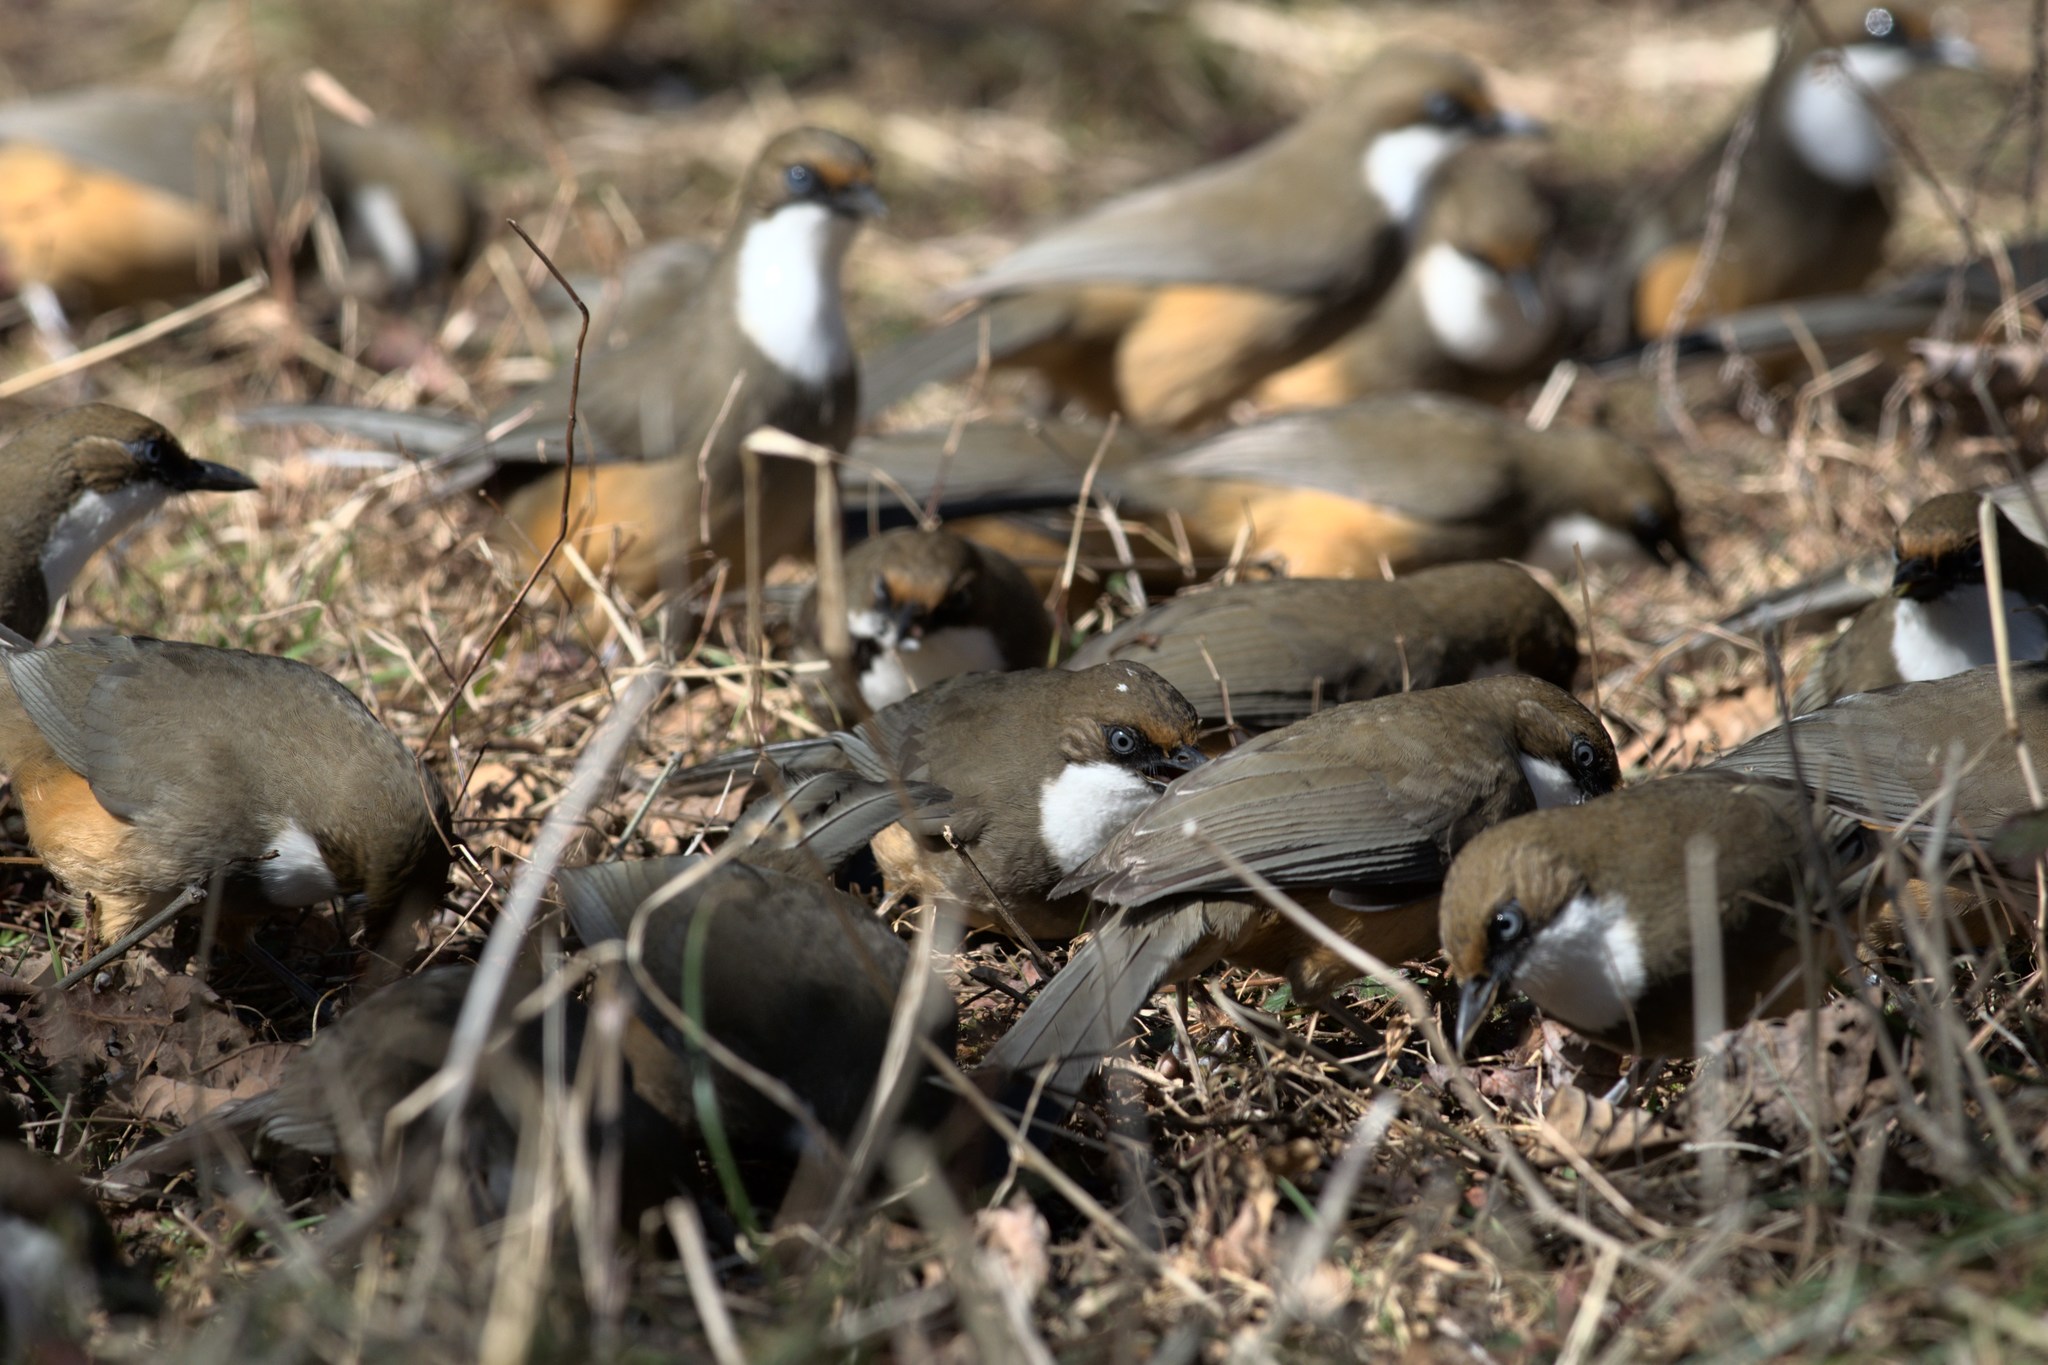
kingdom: Animalia
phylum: Chordata
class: Aves
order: Passeriformes
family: Leiothrichidae
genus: Garrulax
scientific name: Garrulax albogularis
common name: White-throated laughingthrush
